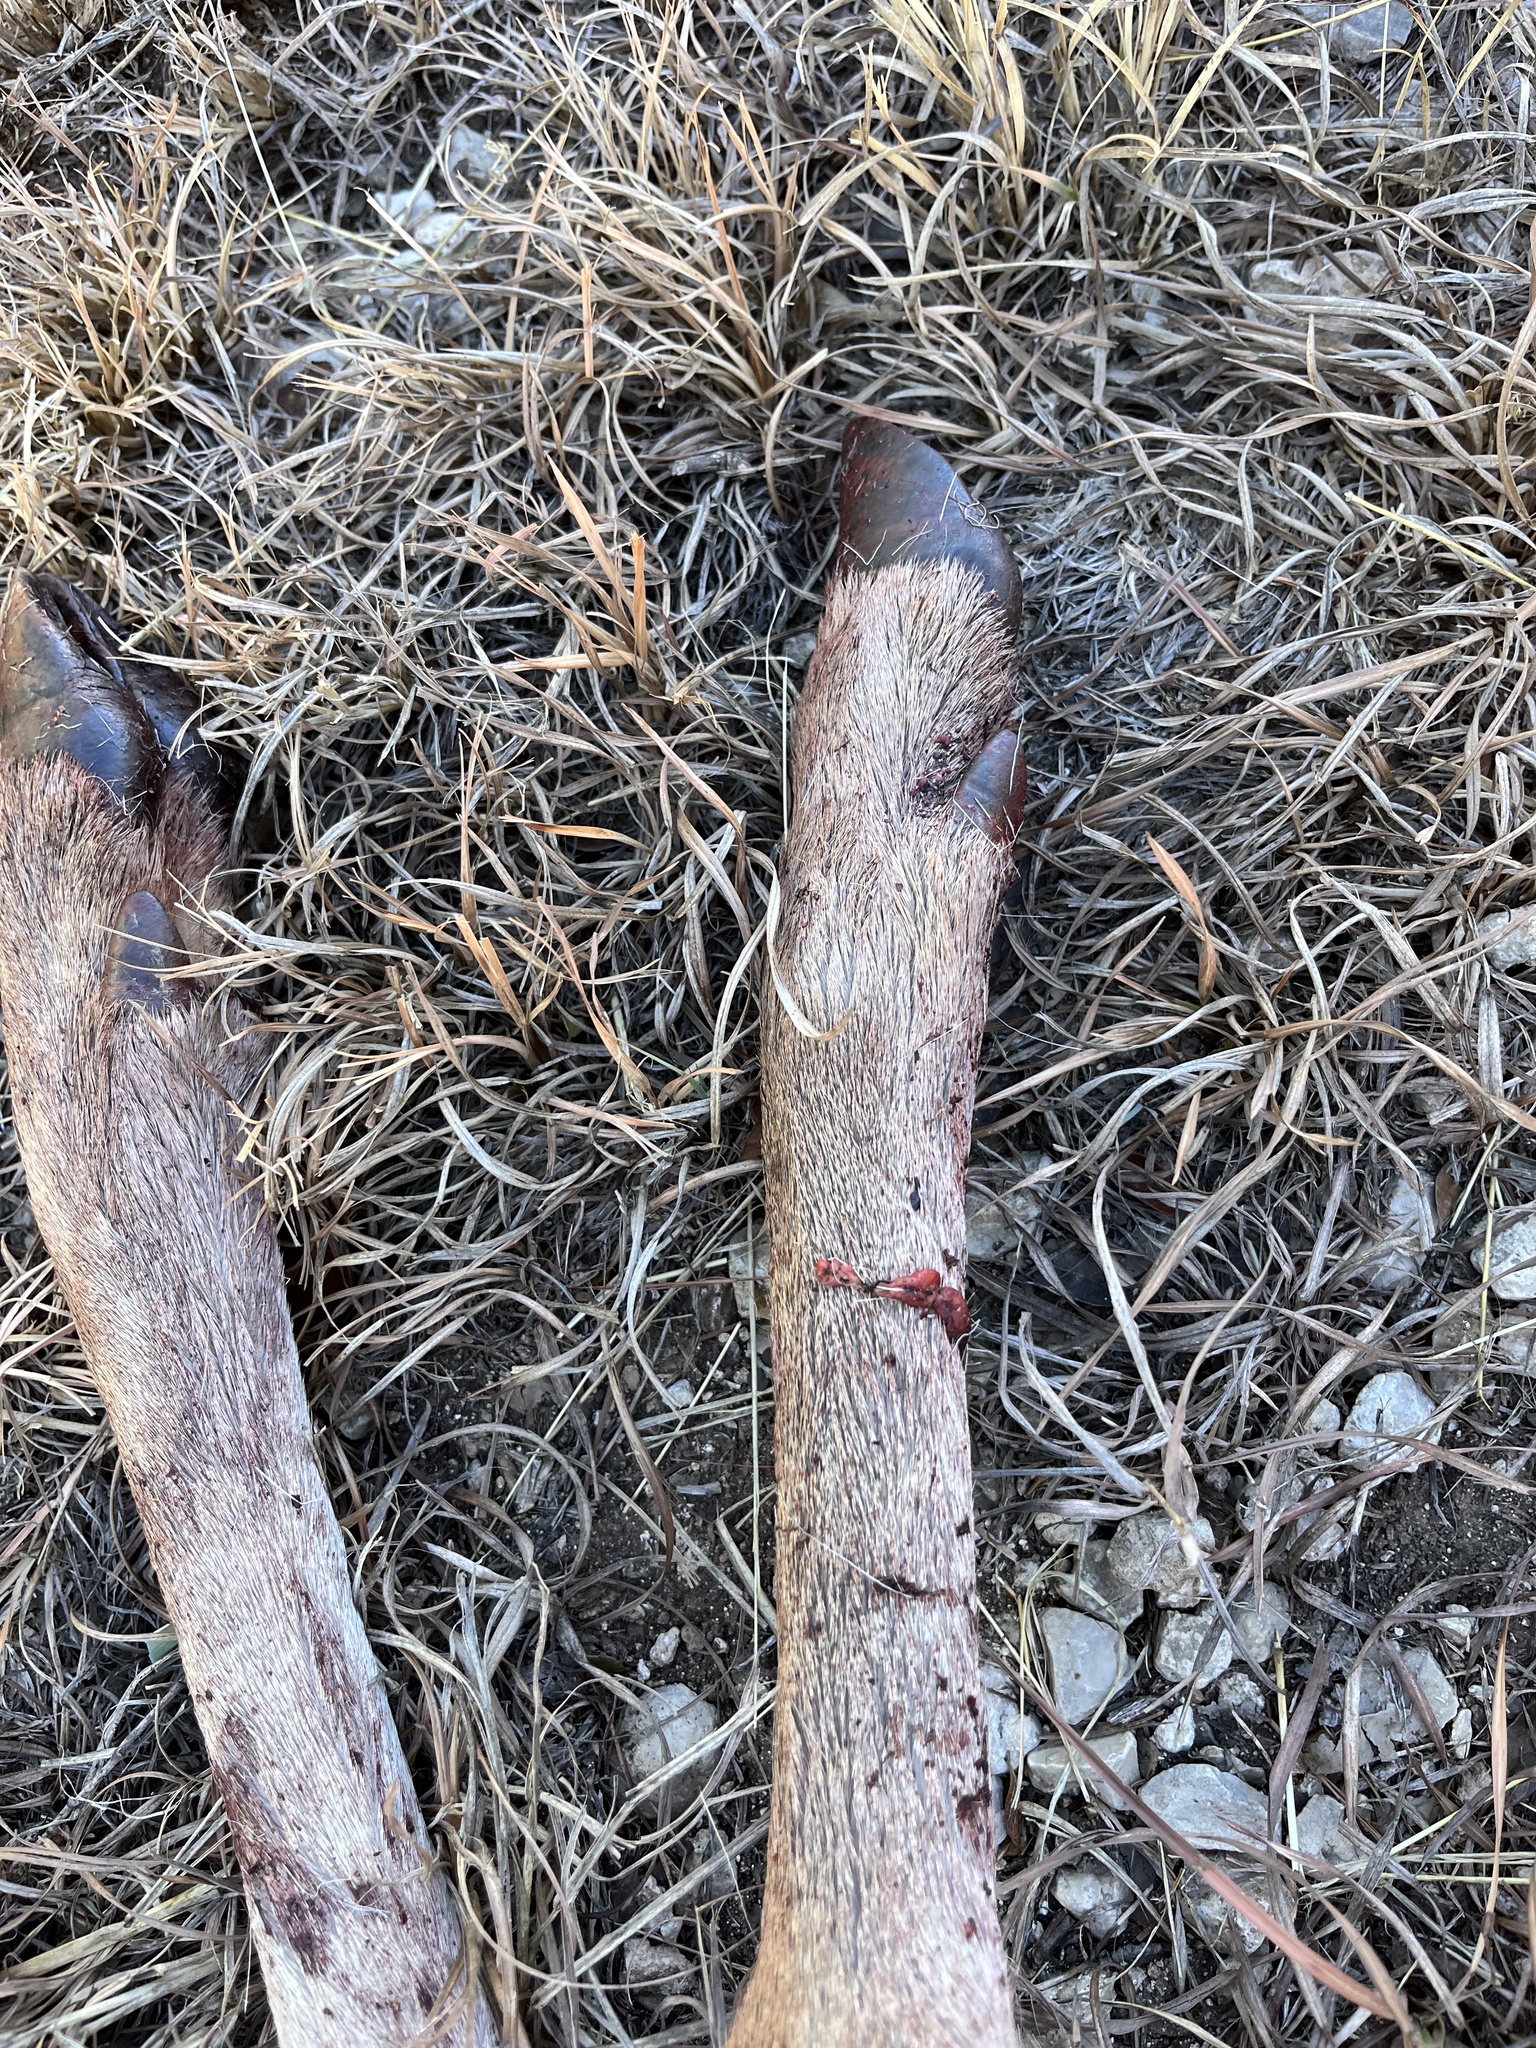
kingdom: Animalia
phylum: Chordata
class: Mammalia
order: Artiodactyla
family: Cervidae
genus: Odocoileus
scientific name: Odocoileus virginianus
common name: White-tailed deer
